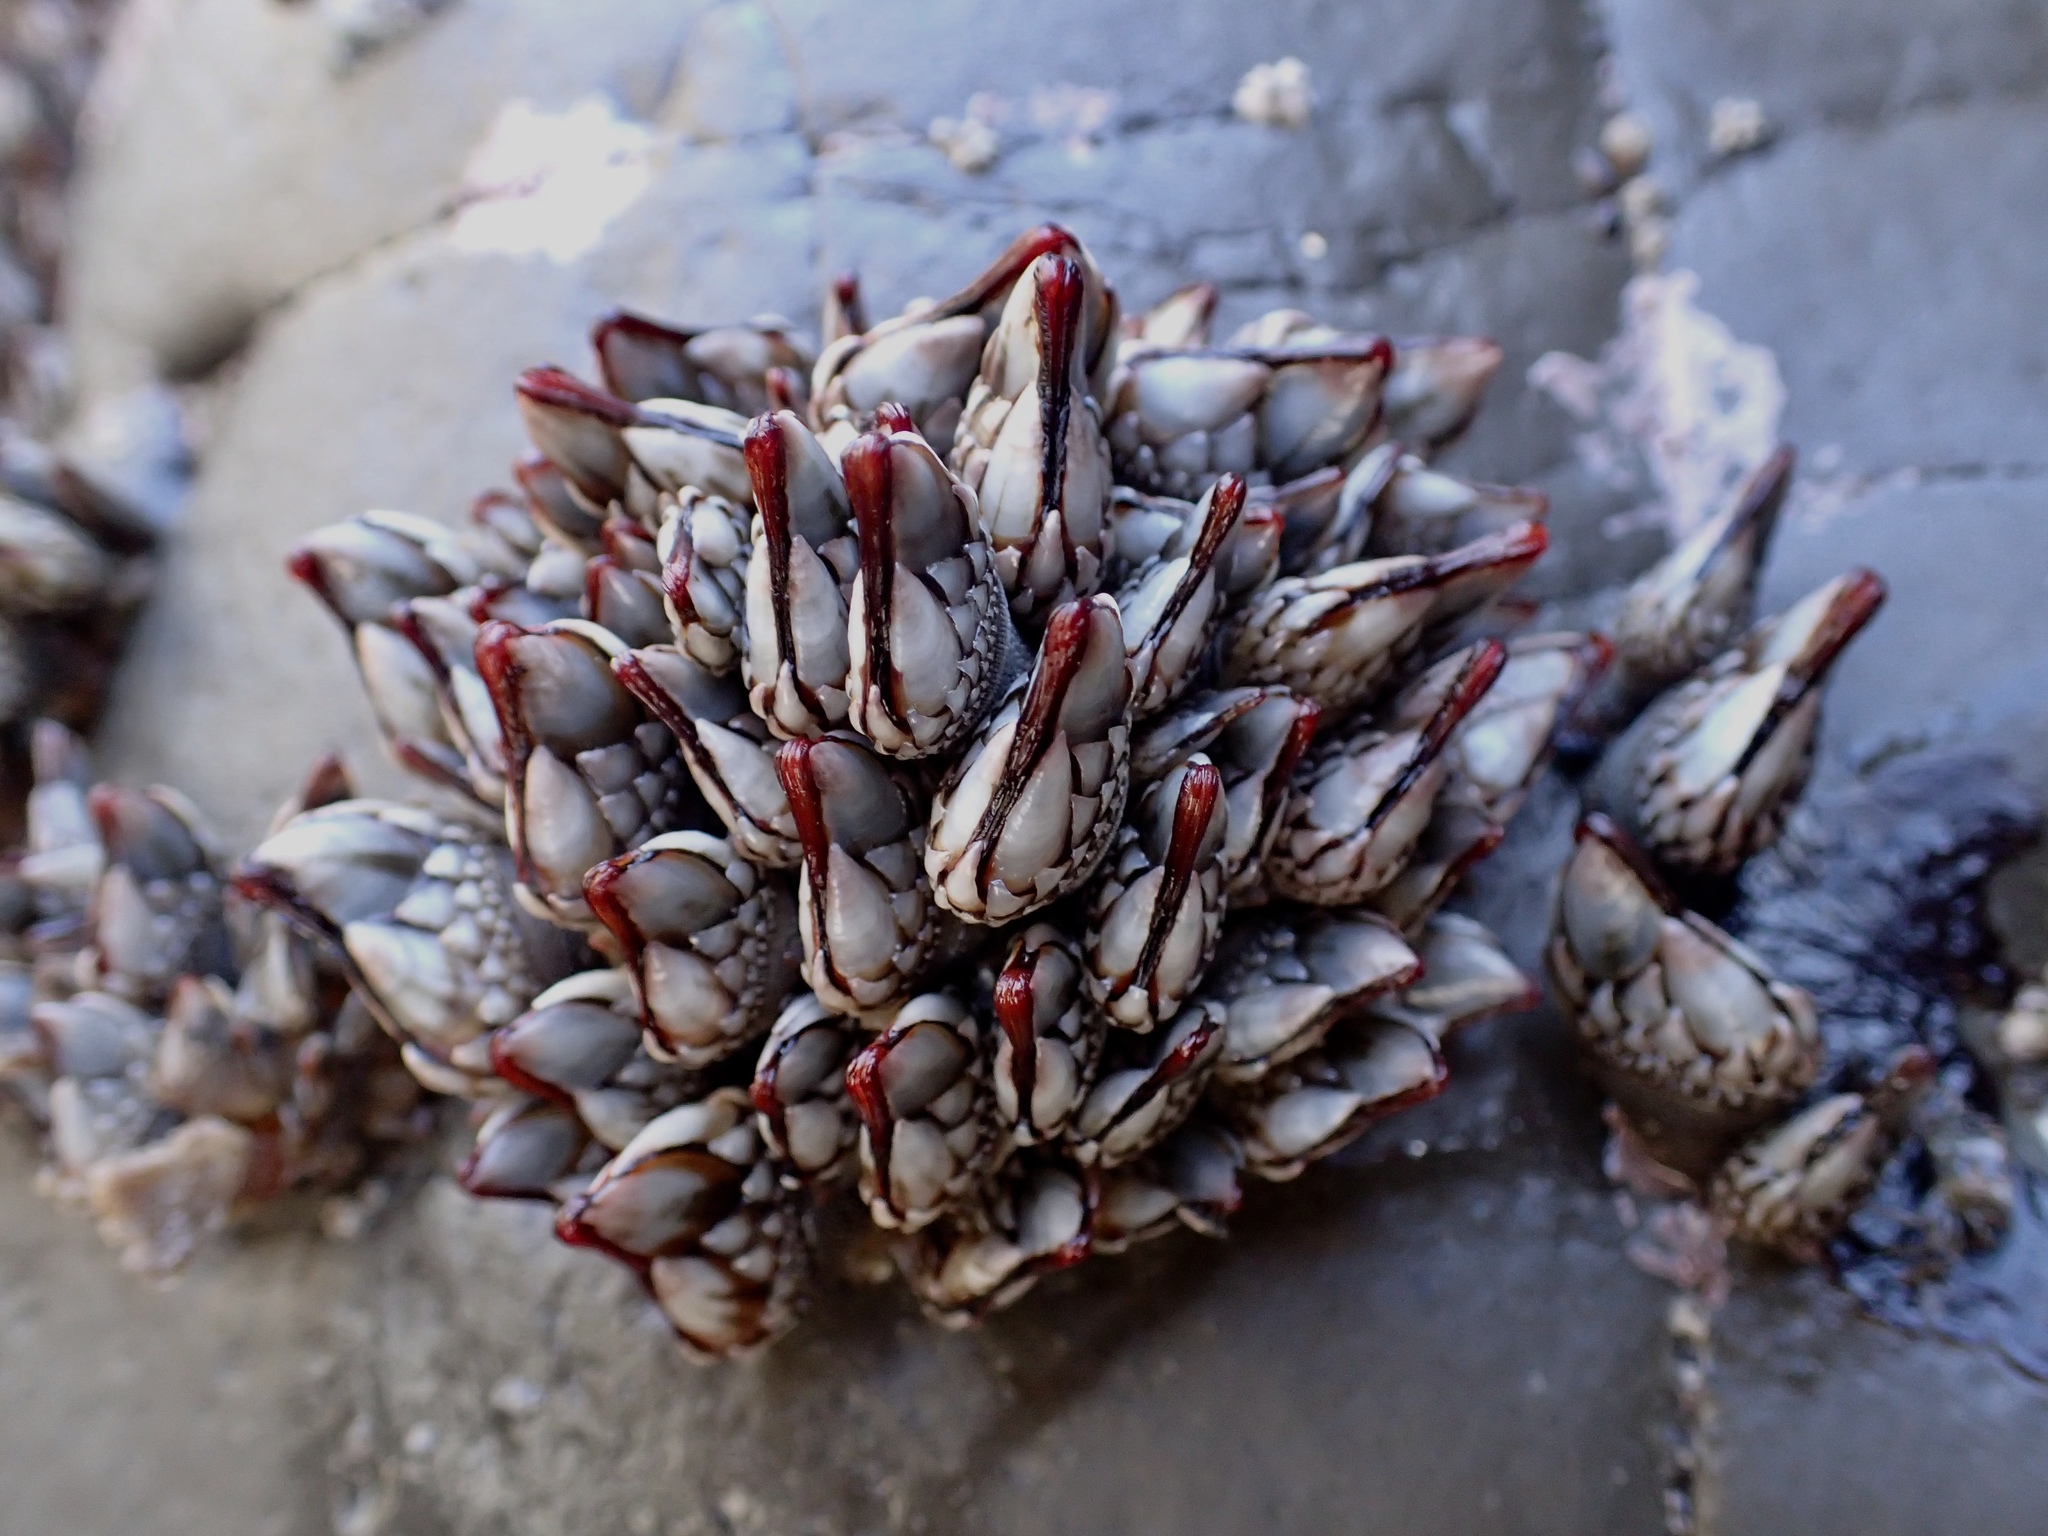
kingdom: Animalia
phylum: Arthropoda
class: Maxillopoda
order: Pedunculata
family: Pollicipedidae
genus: Pollicipes
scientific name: Pollicipes polymerus
